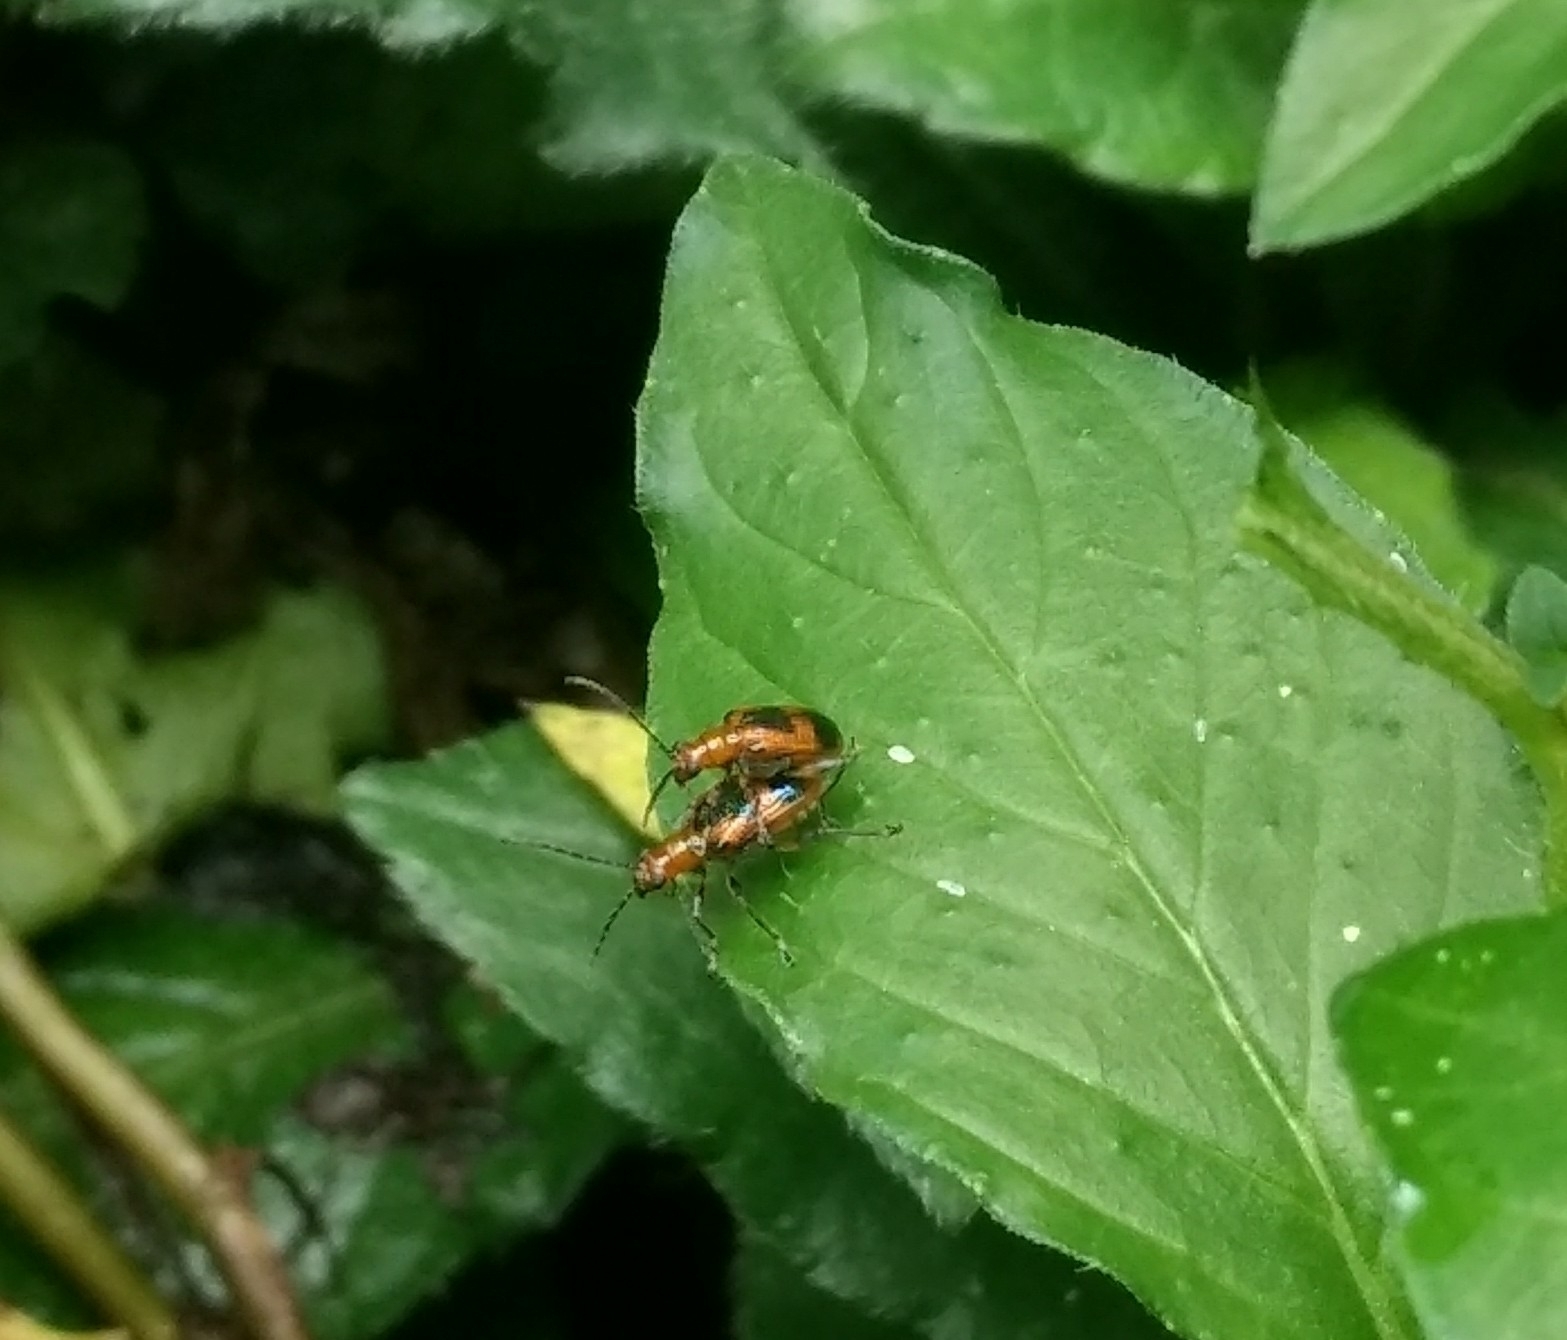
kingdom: Animalia
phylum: Arthropoda
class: Insecta
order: Coleoptera
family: Chrysomelidae
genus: Neolema
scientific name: Neolema dorsalis
